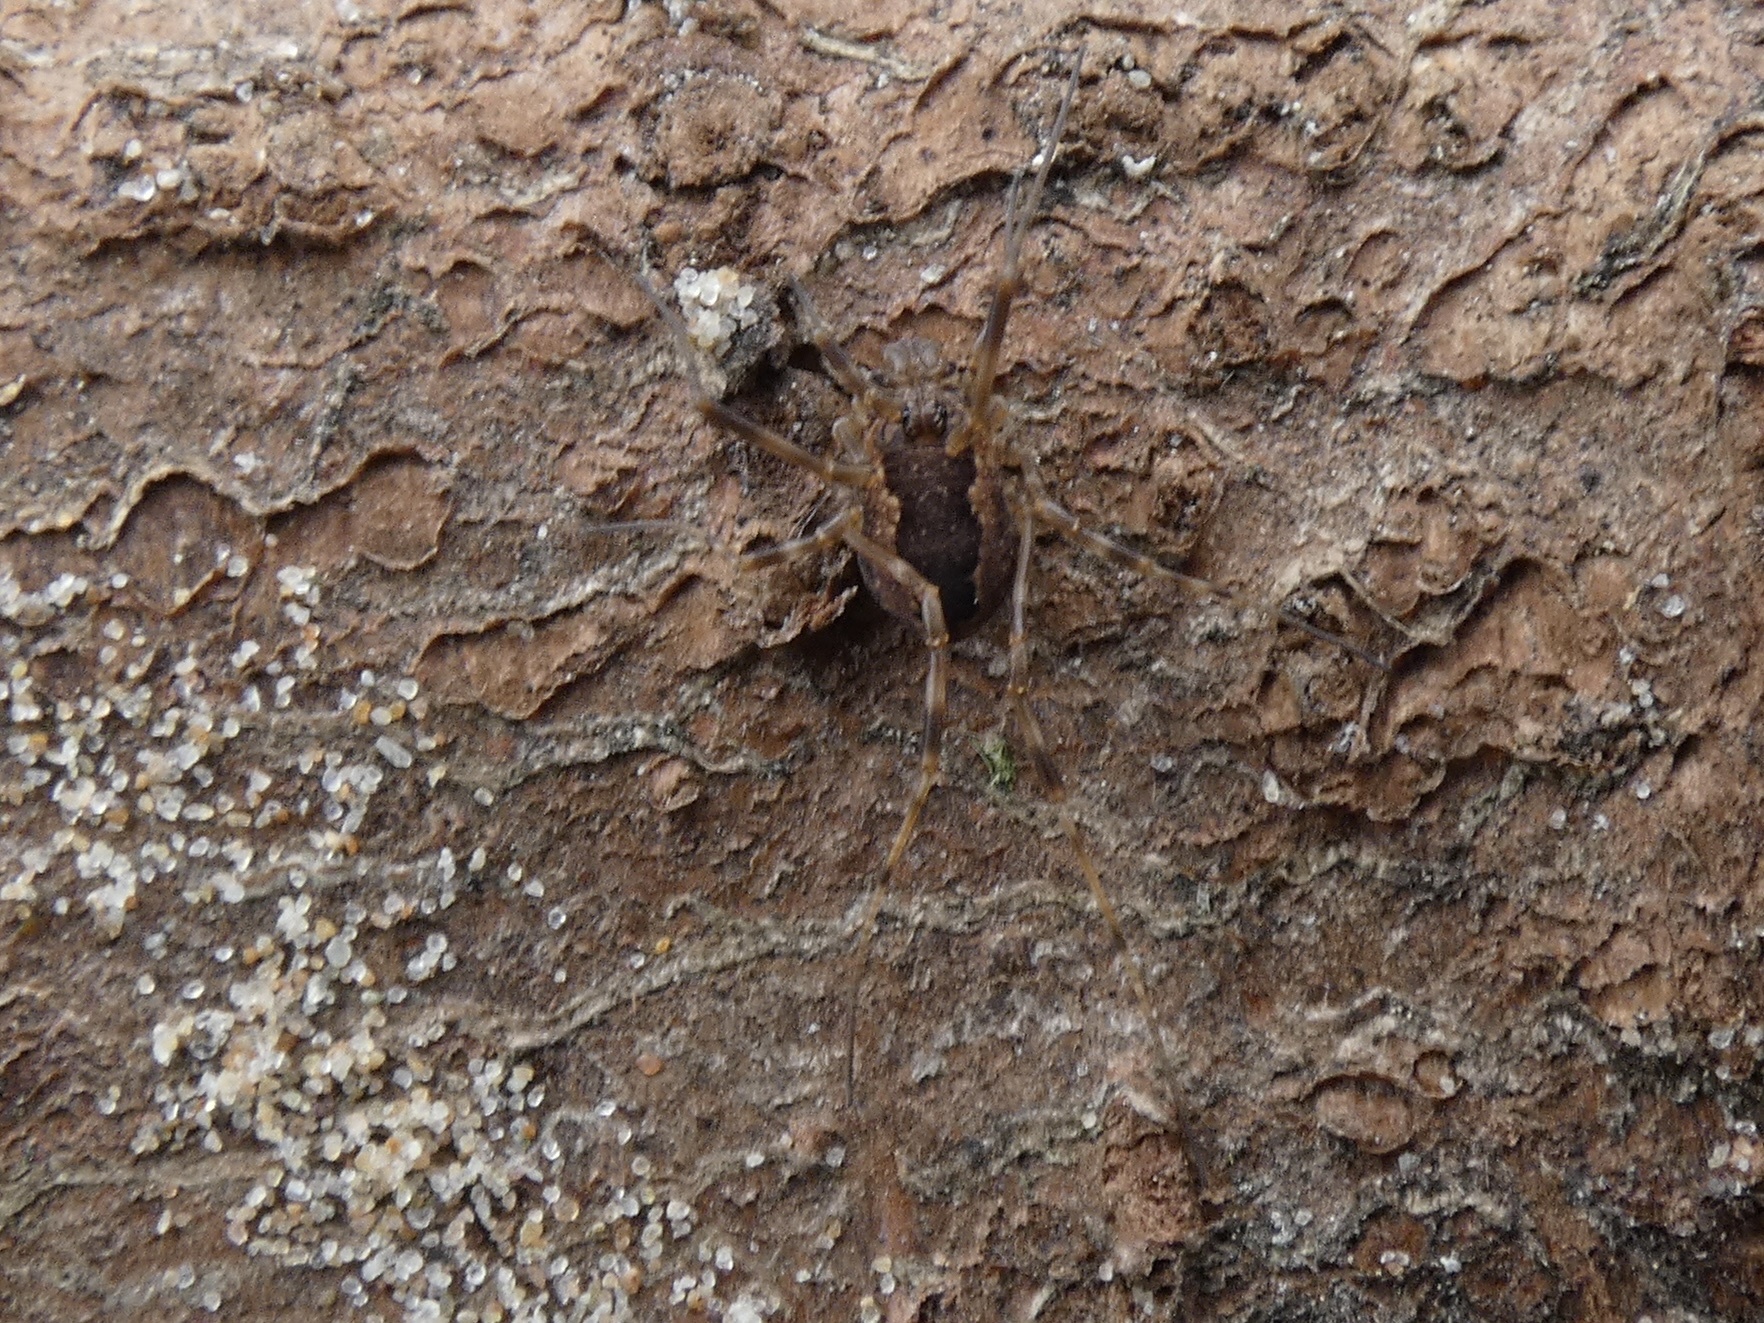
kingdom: Animalia
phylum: Arthropoda
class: Arachnida
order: Opiliones
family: Phalangiidae
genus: Rilaena
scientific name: Rilaena triangularis
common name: Spring harvestman
